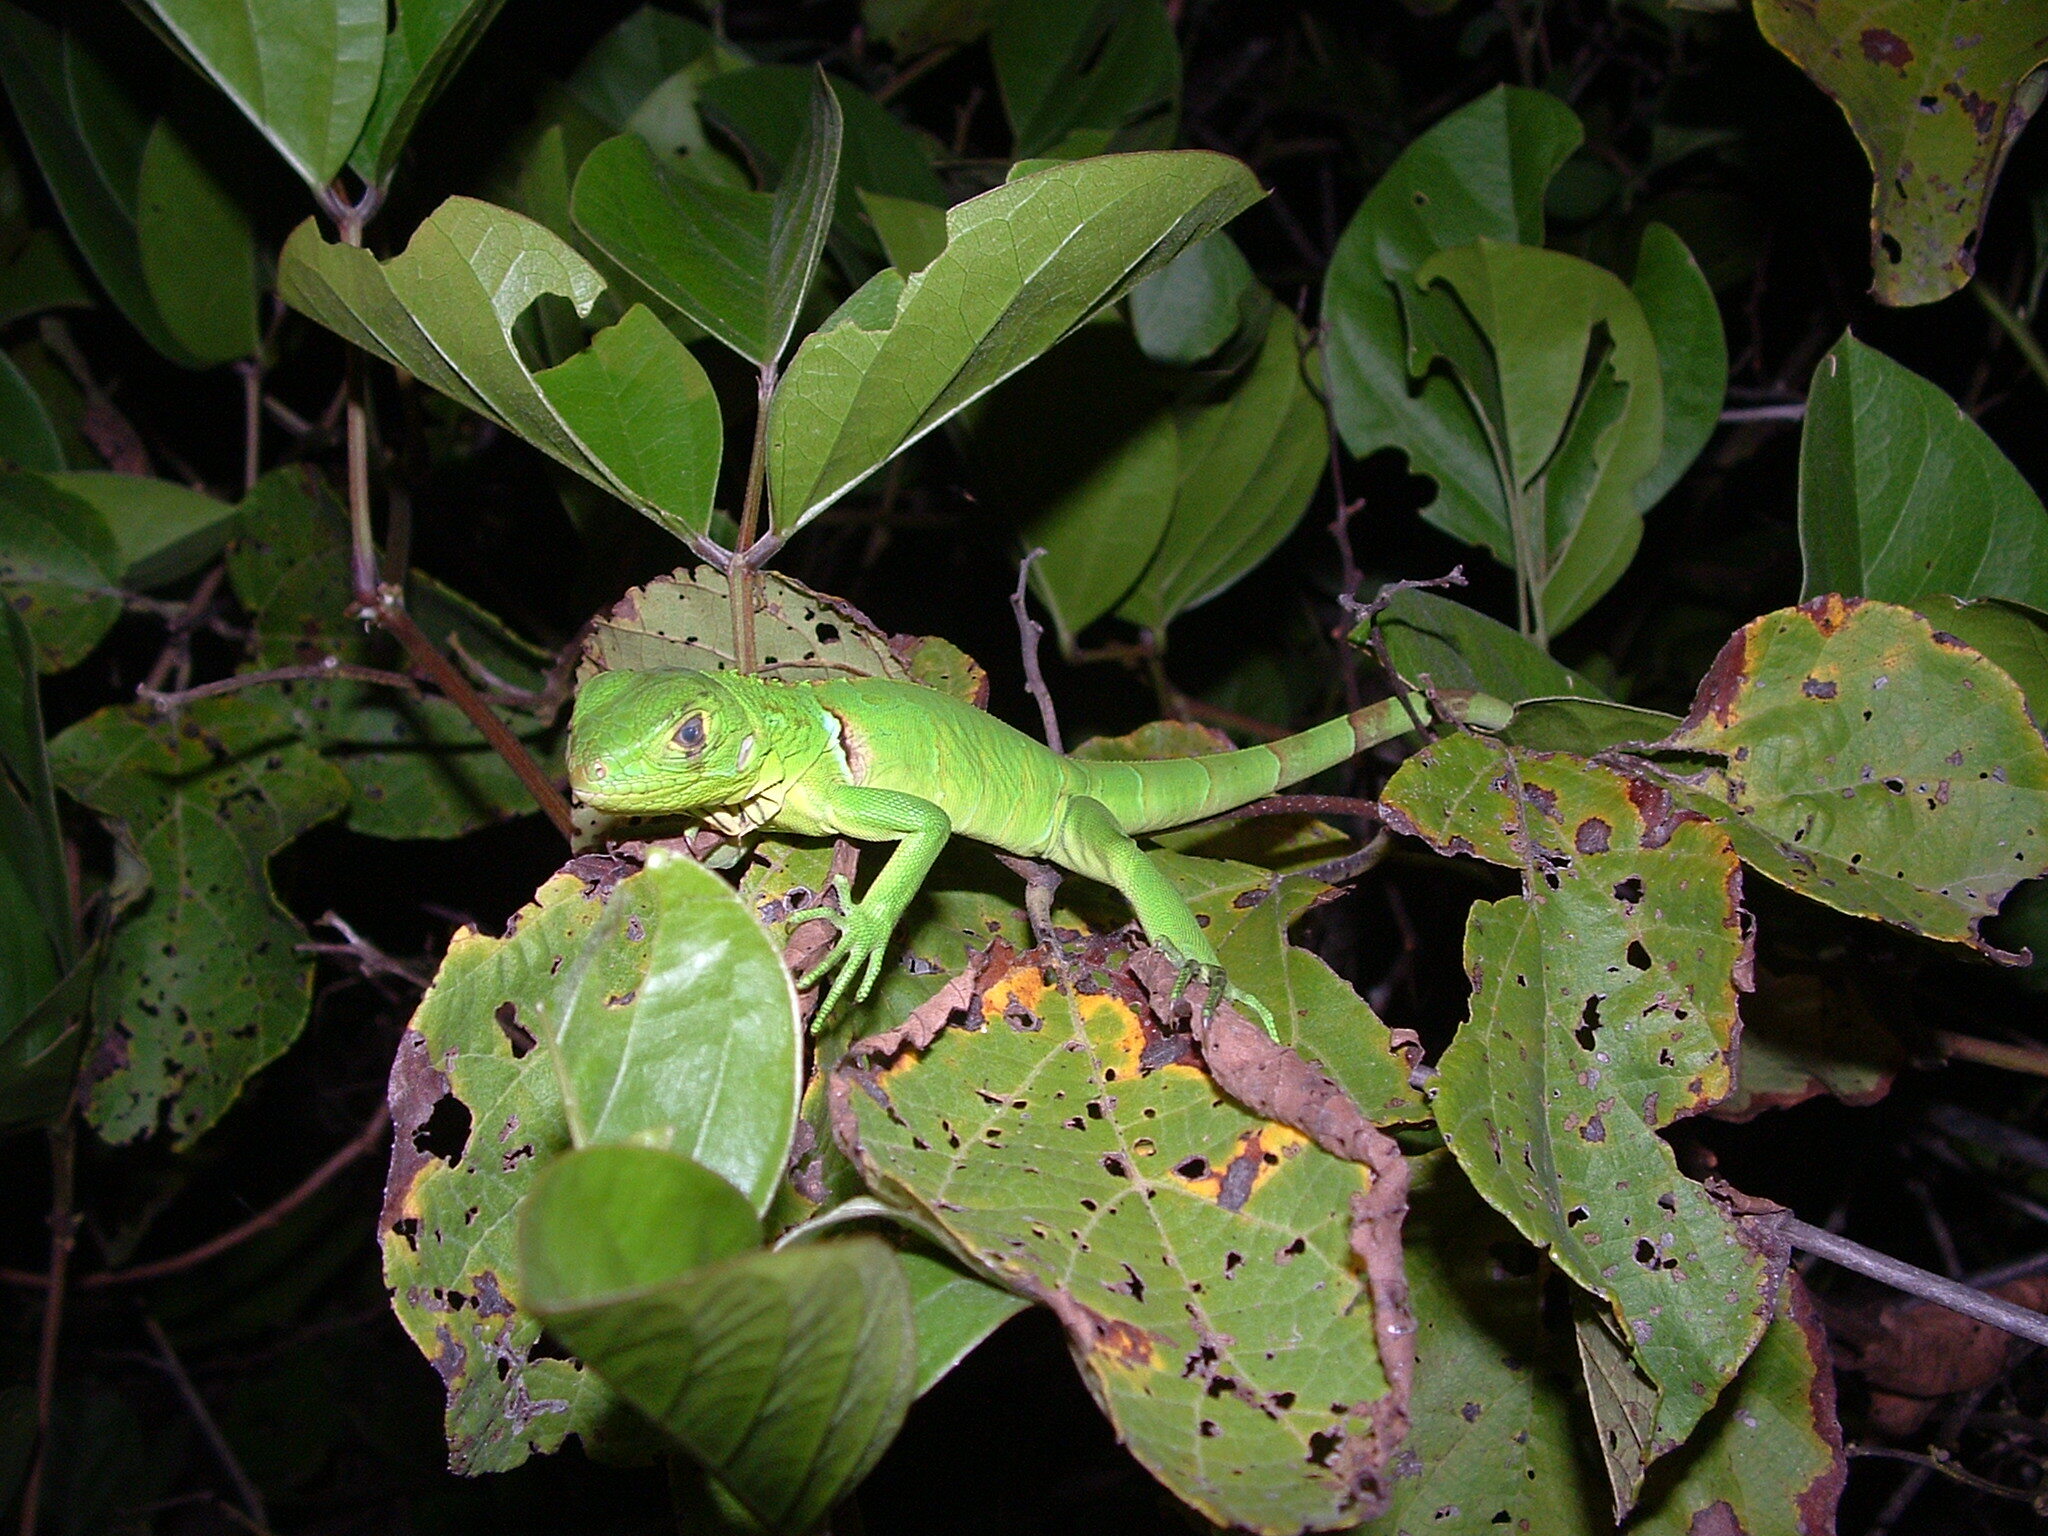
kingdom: Animalia
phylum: Chordata
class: Squamata
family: Iguanidae
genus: Iguana
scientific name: Iguana iguana
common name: Green iguana
